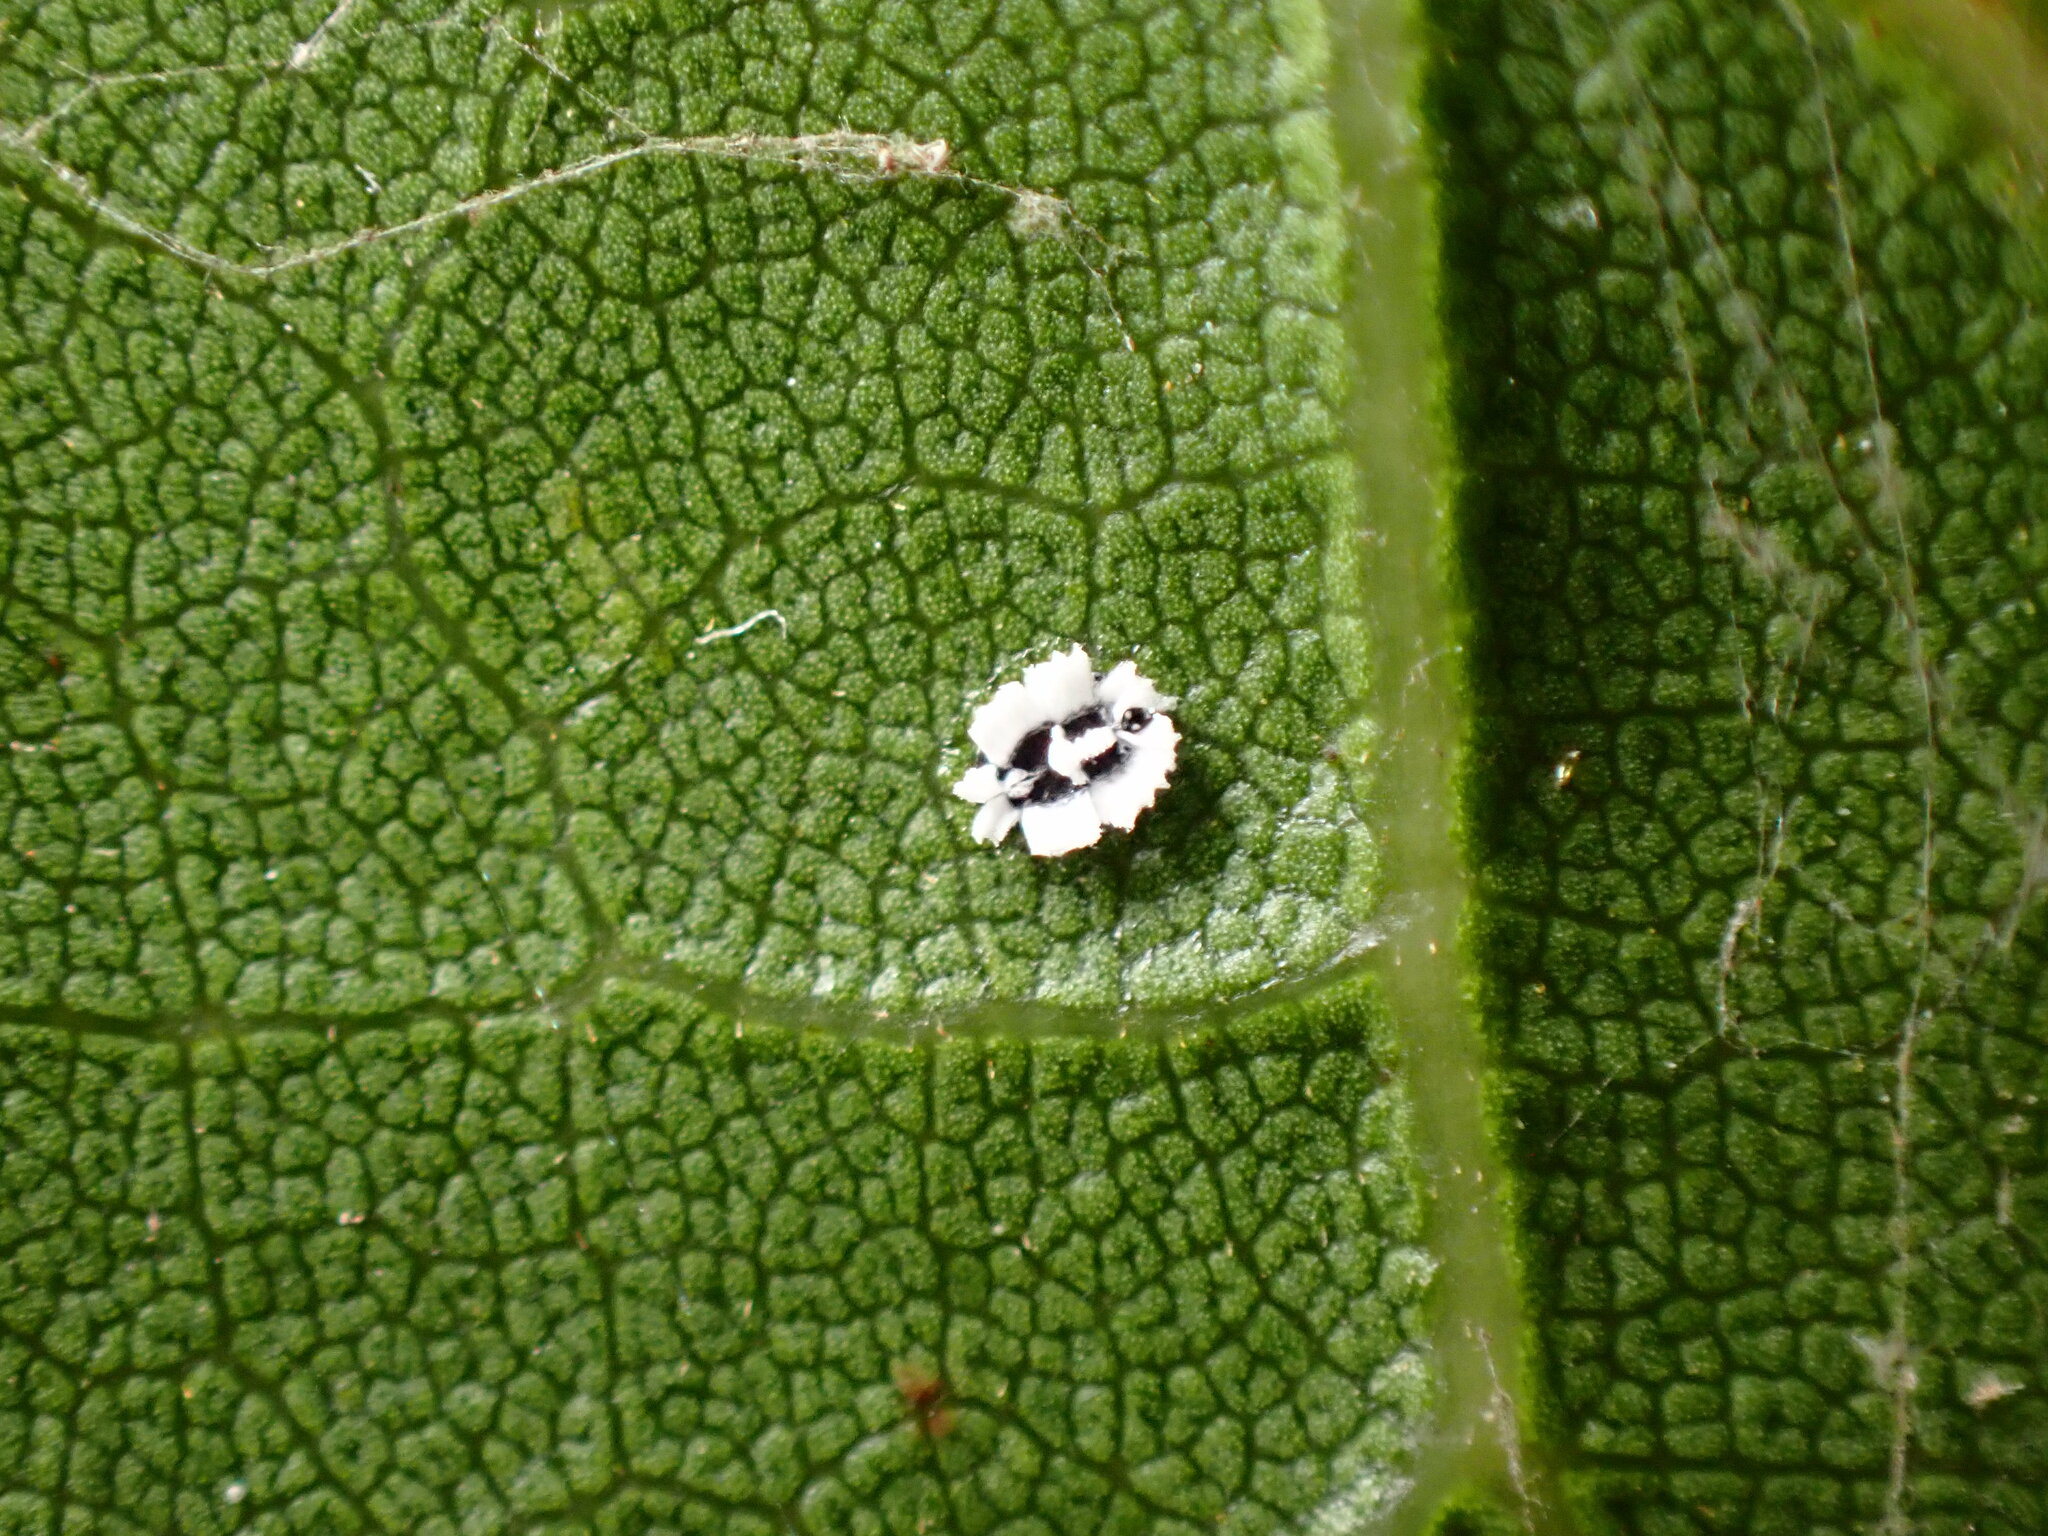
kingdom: Animalia
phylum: Arthropoda
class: Insecta
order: Hemiptera
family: Aleyrodidae
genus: Aleuroplatus
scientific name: Aleuroplatus coronata
